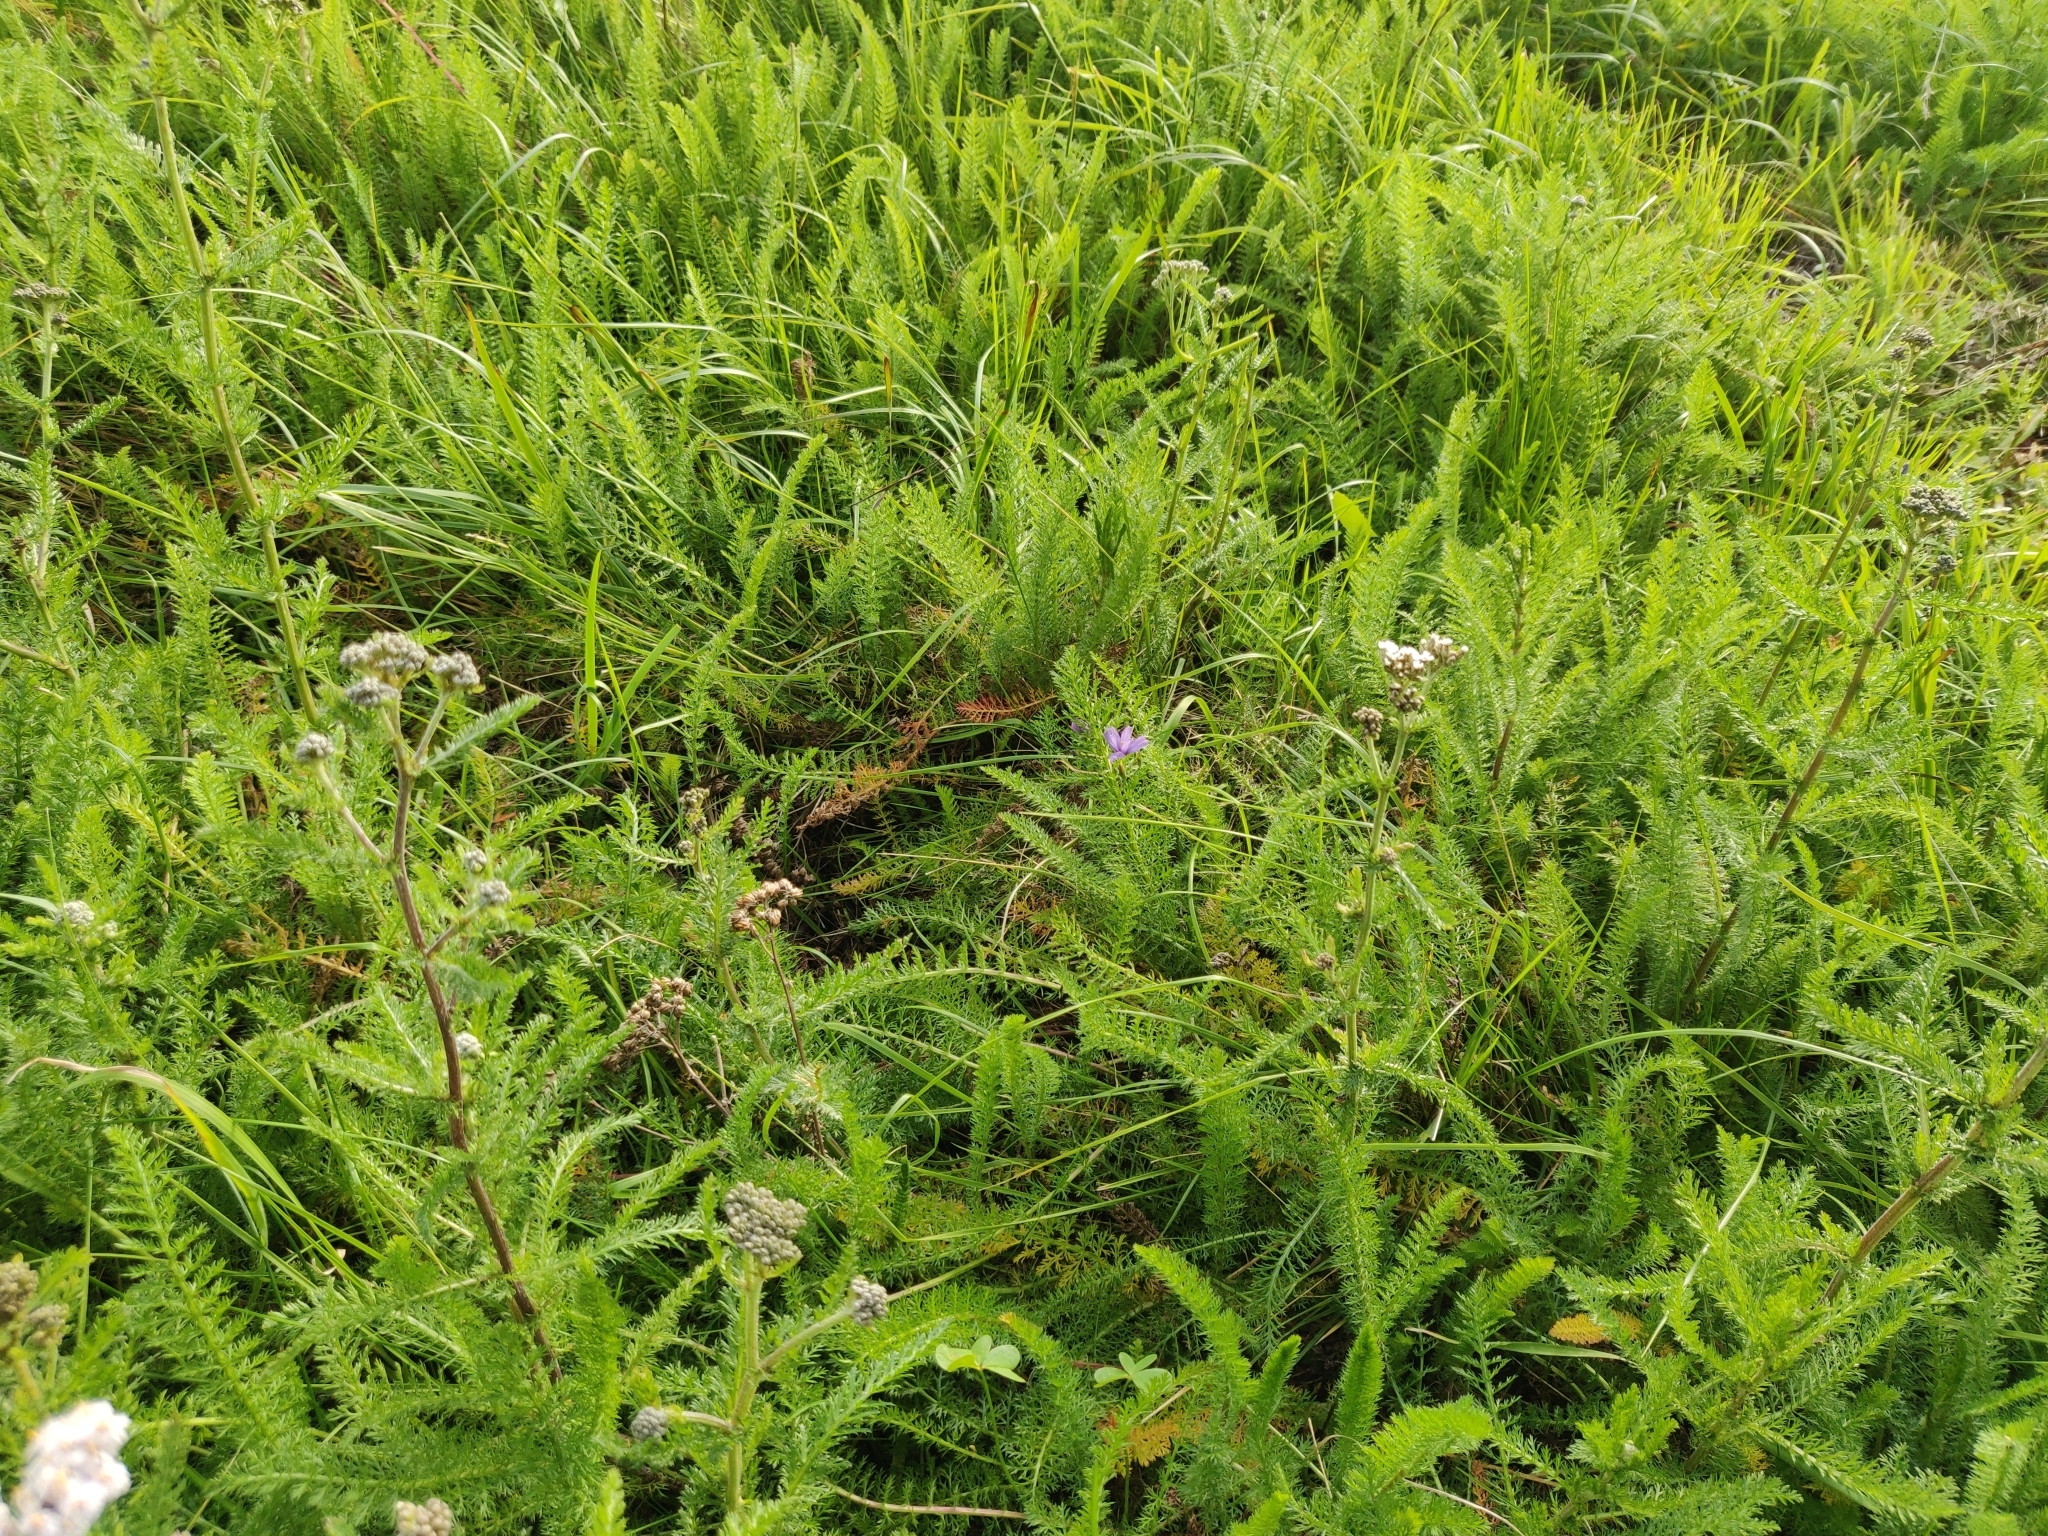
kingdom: Plantae
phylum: Tracheophyta
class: Magnoliopsida
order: Asterales
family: Asteraceae
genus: Achillea
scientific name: Achillea millefolium
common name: Yarrow
